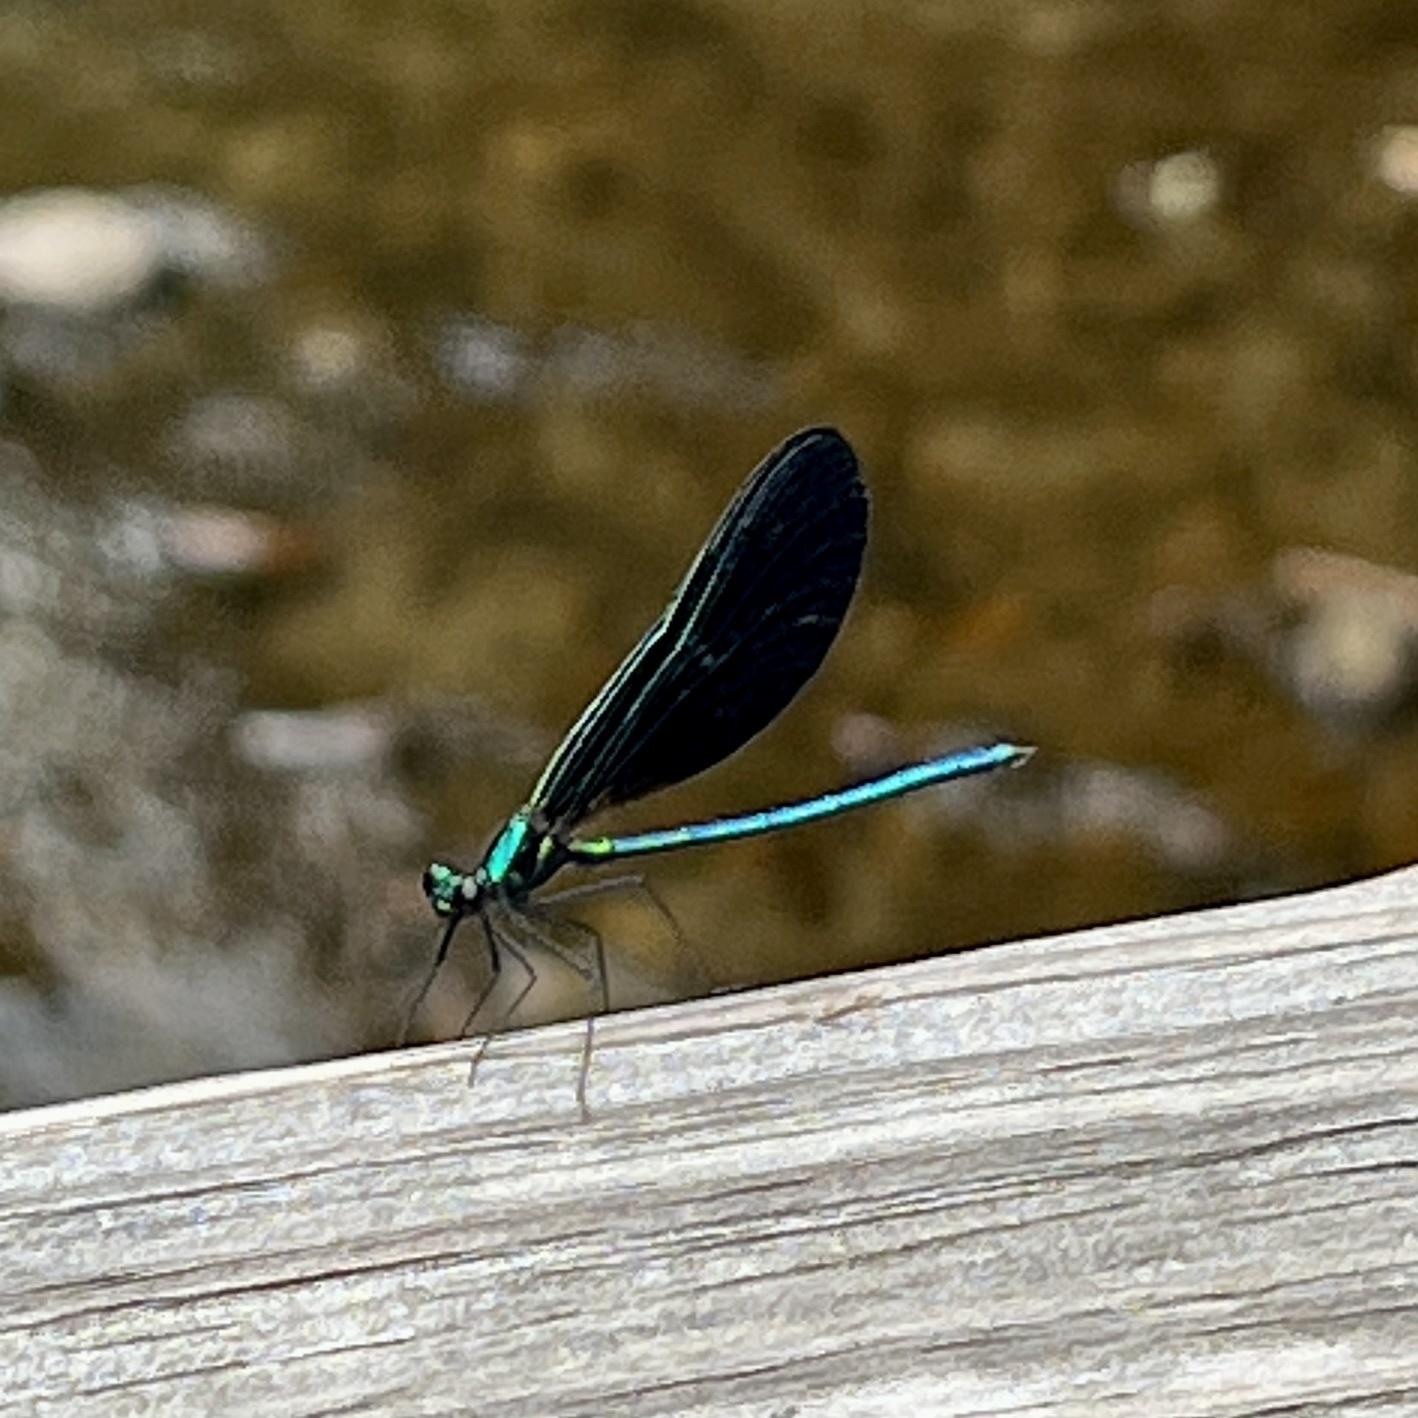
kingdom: Animalia
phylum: Arthropoda
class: Insecta
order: Odonata
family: Calopterygidae
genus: Calopteryx
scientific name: Calopteryx maculata
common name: Ebony jewelwing
